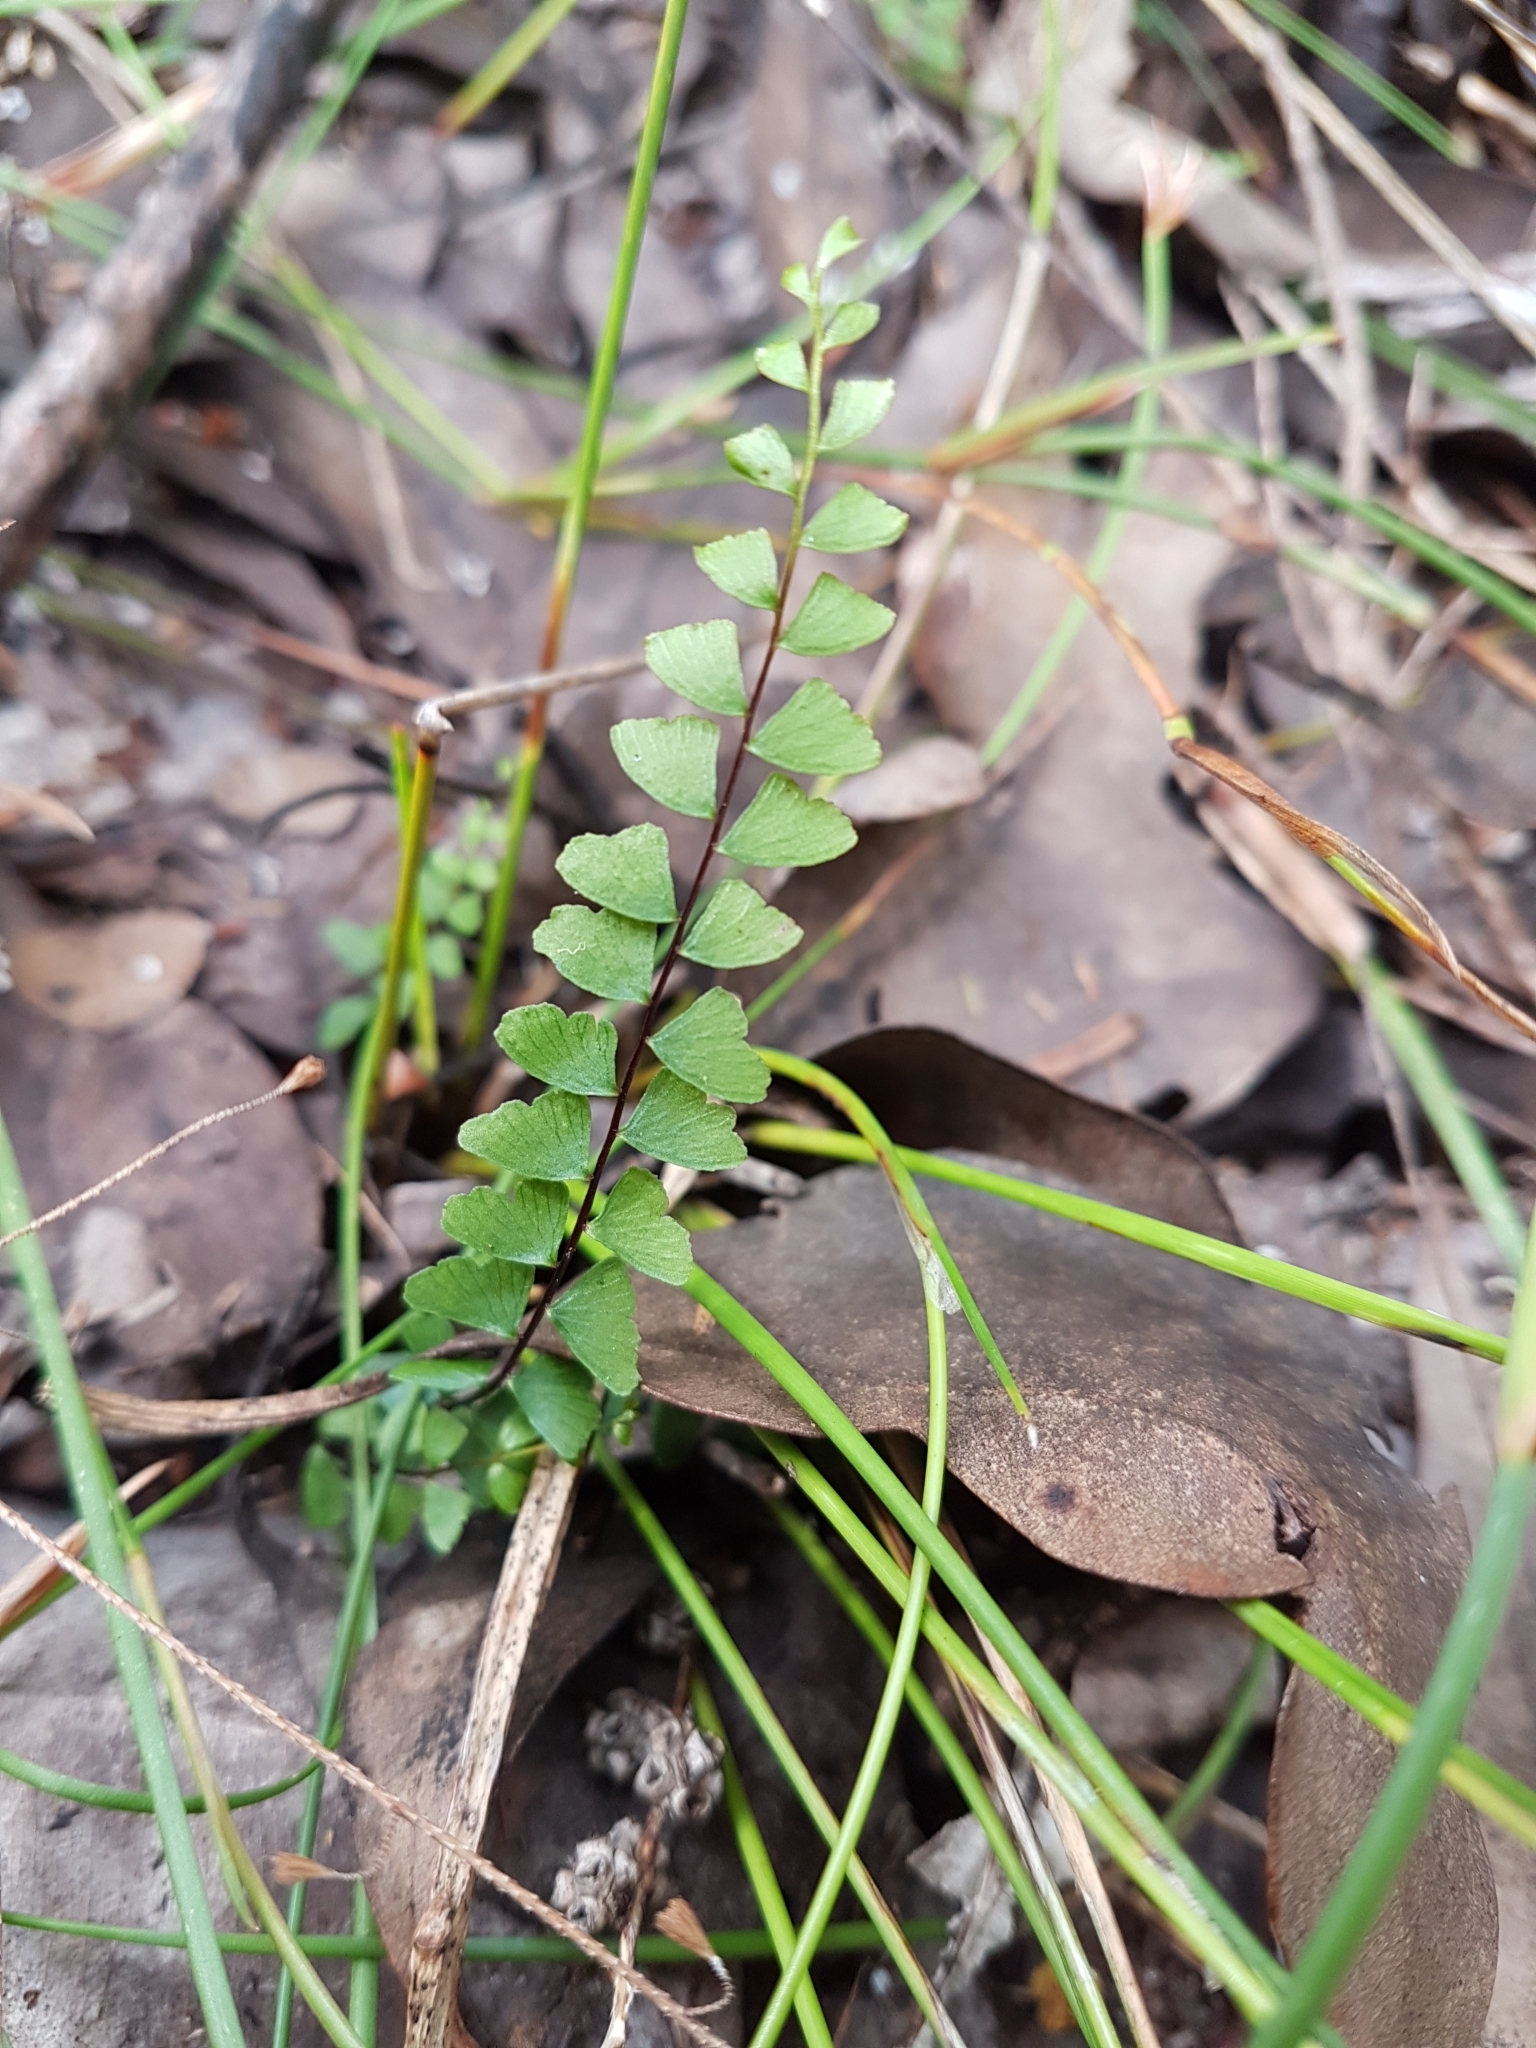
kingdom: Plantae
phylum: Tracheophyta
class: Polypodiopsida
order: Polypodiales
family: Lindsaeaceae
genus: Lindsaea
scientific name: Lindsaea linearis
